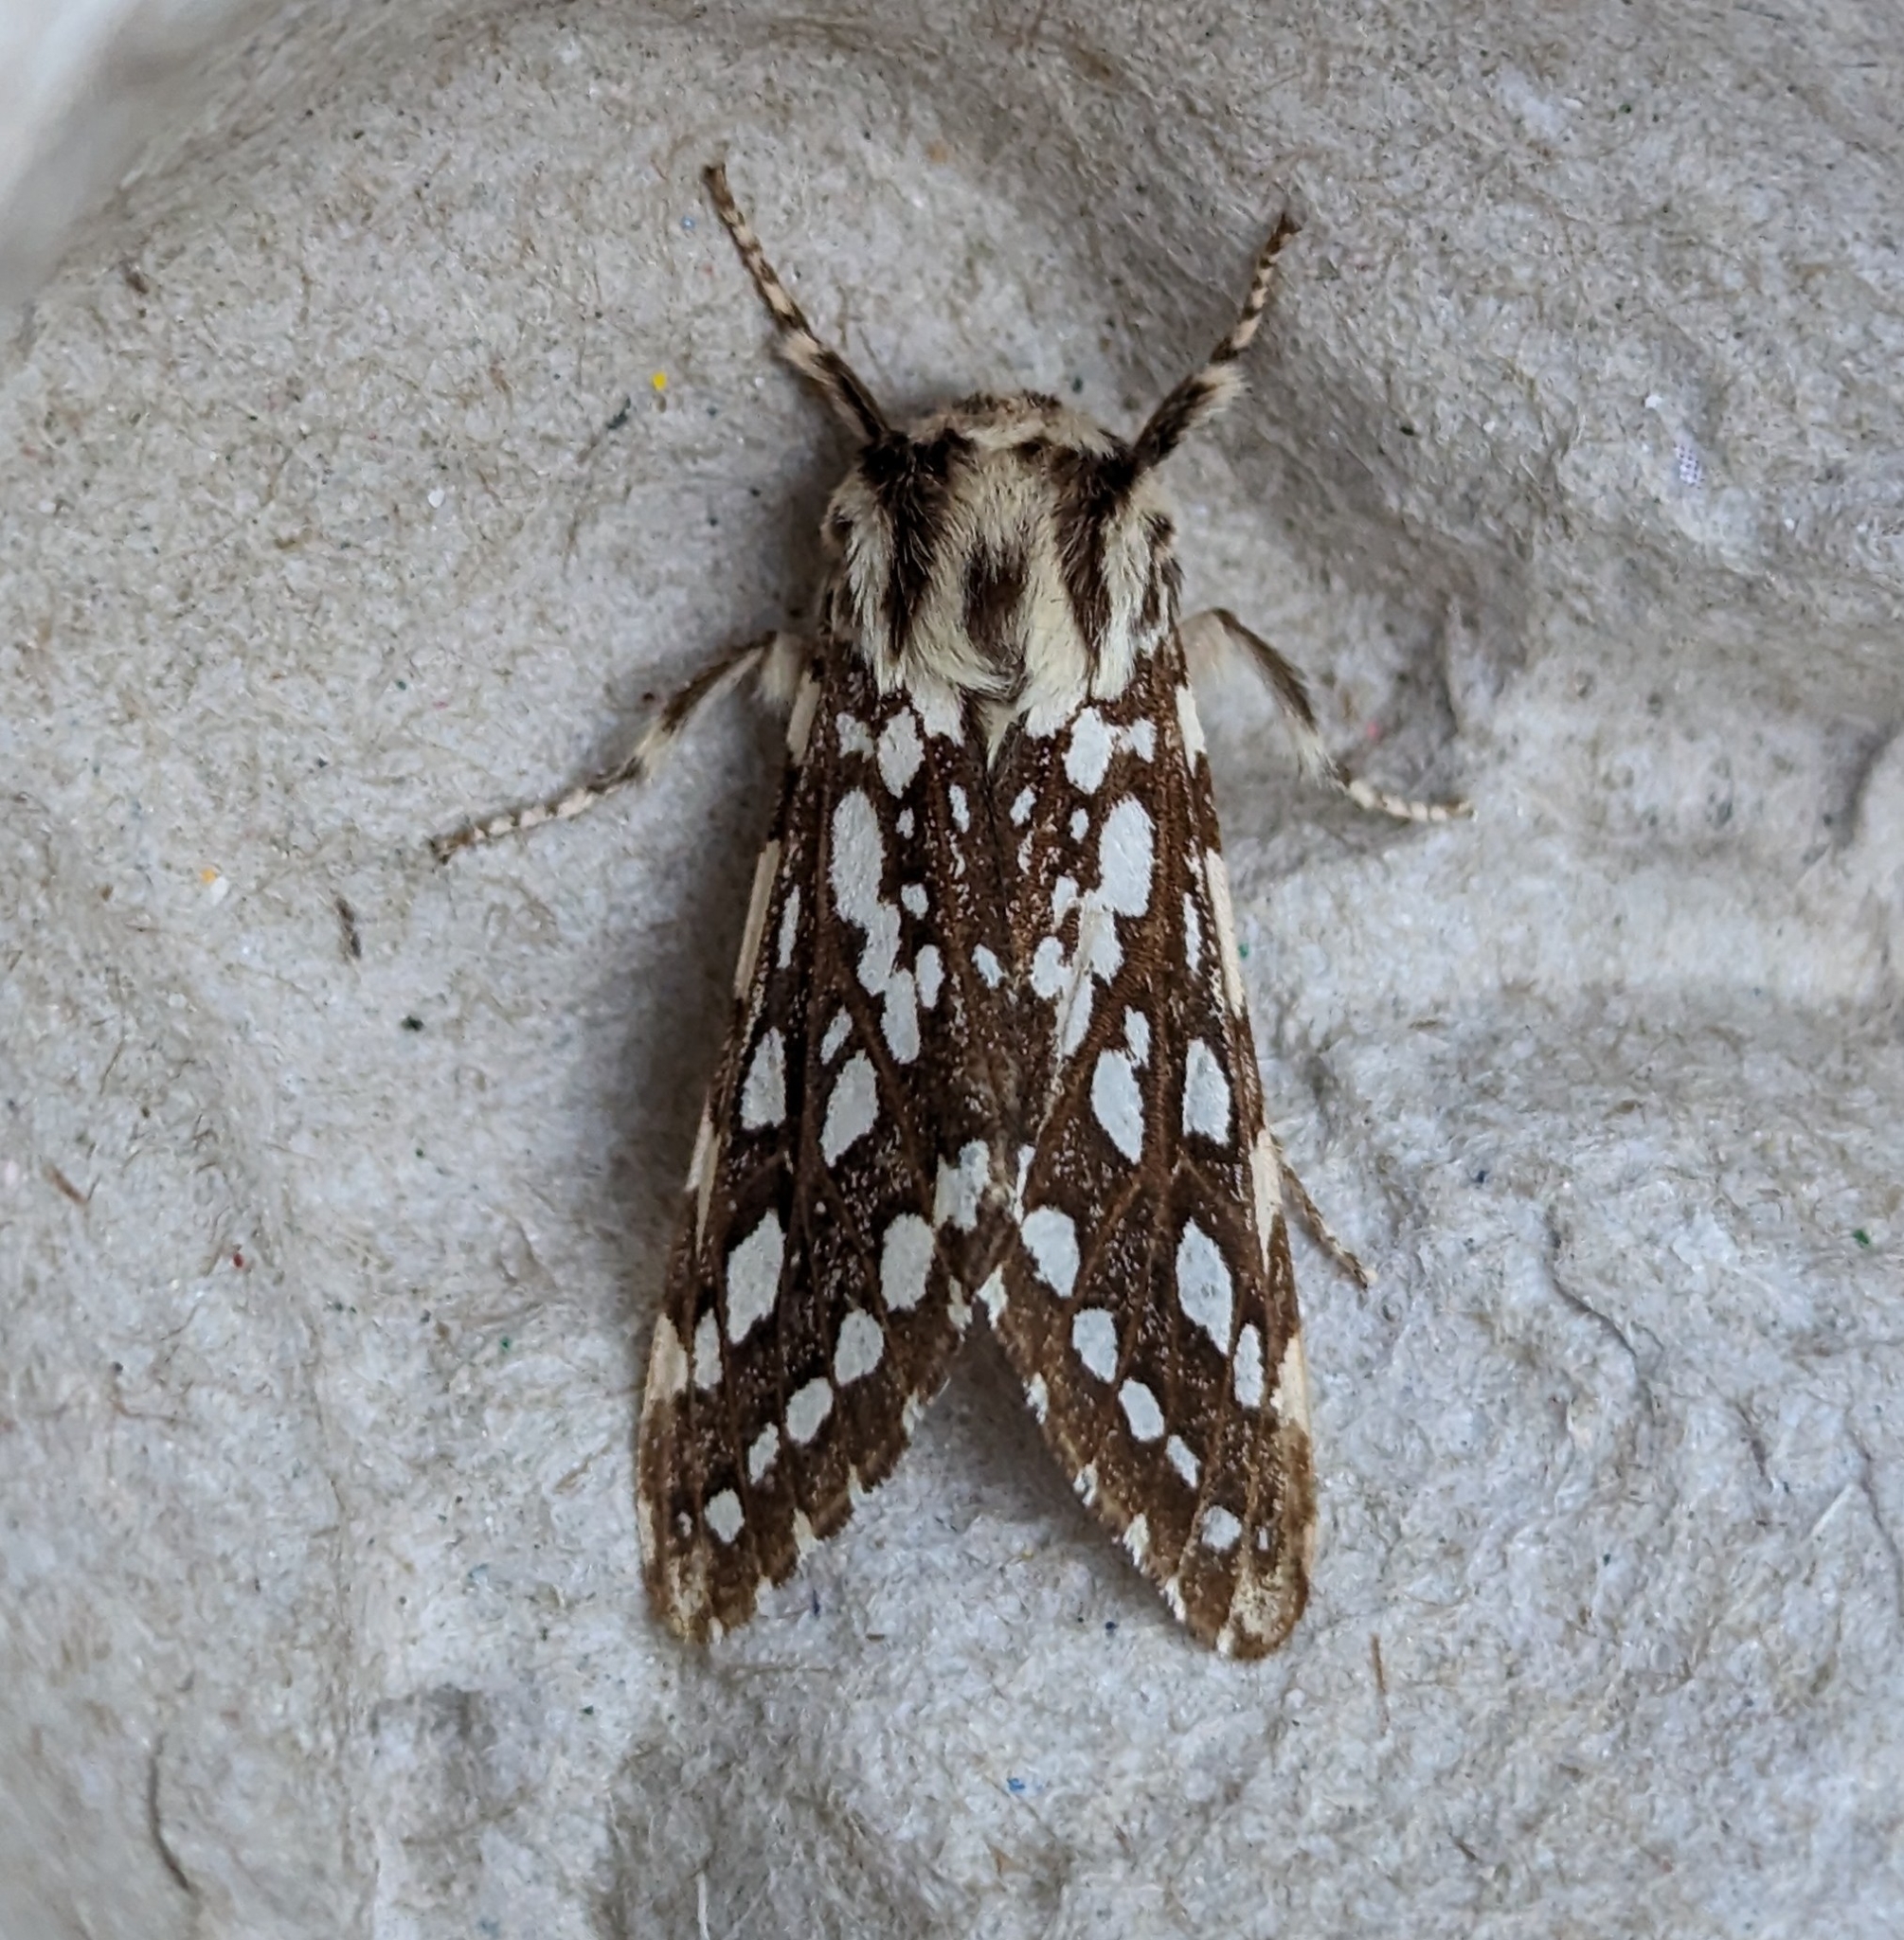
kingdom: Animalia
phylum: Arthropoda
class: Insecta
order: Lepidoptera
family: Erebidae
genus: Lophocampa
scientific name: Lophocampa argentata
